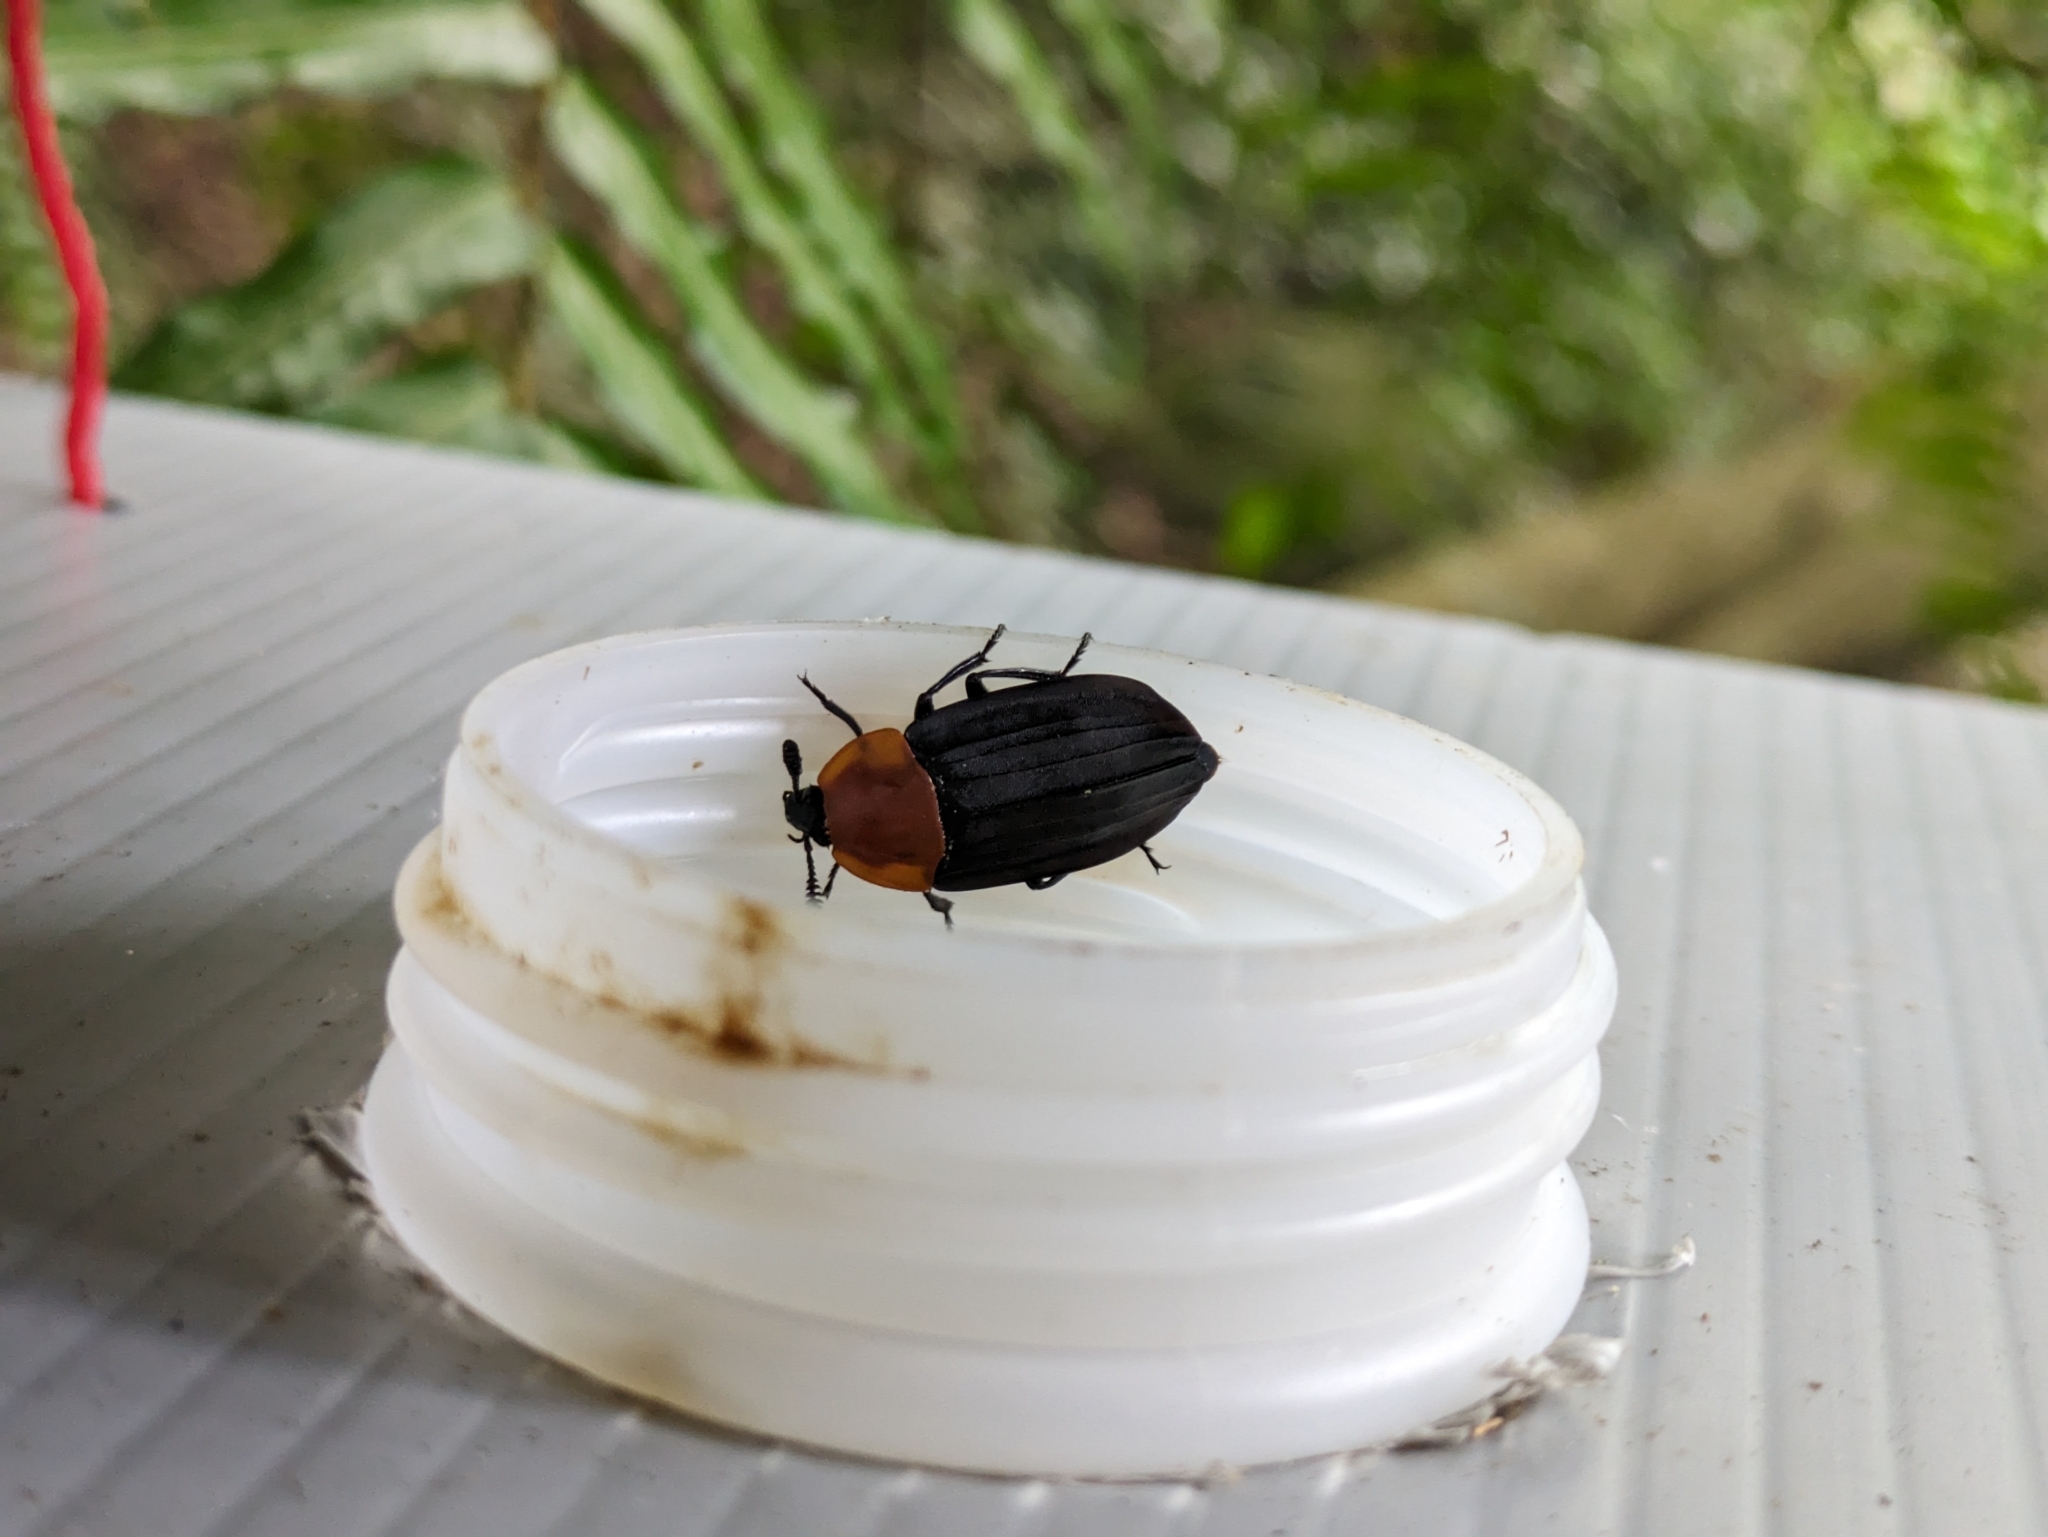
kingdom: Animalia
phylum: Arthropoda
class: Insecta
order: Coleoptera
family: Staphylinidae
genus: Necrophila
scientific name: Necrophila cyaneocephala
